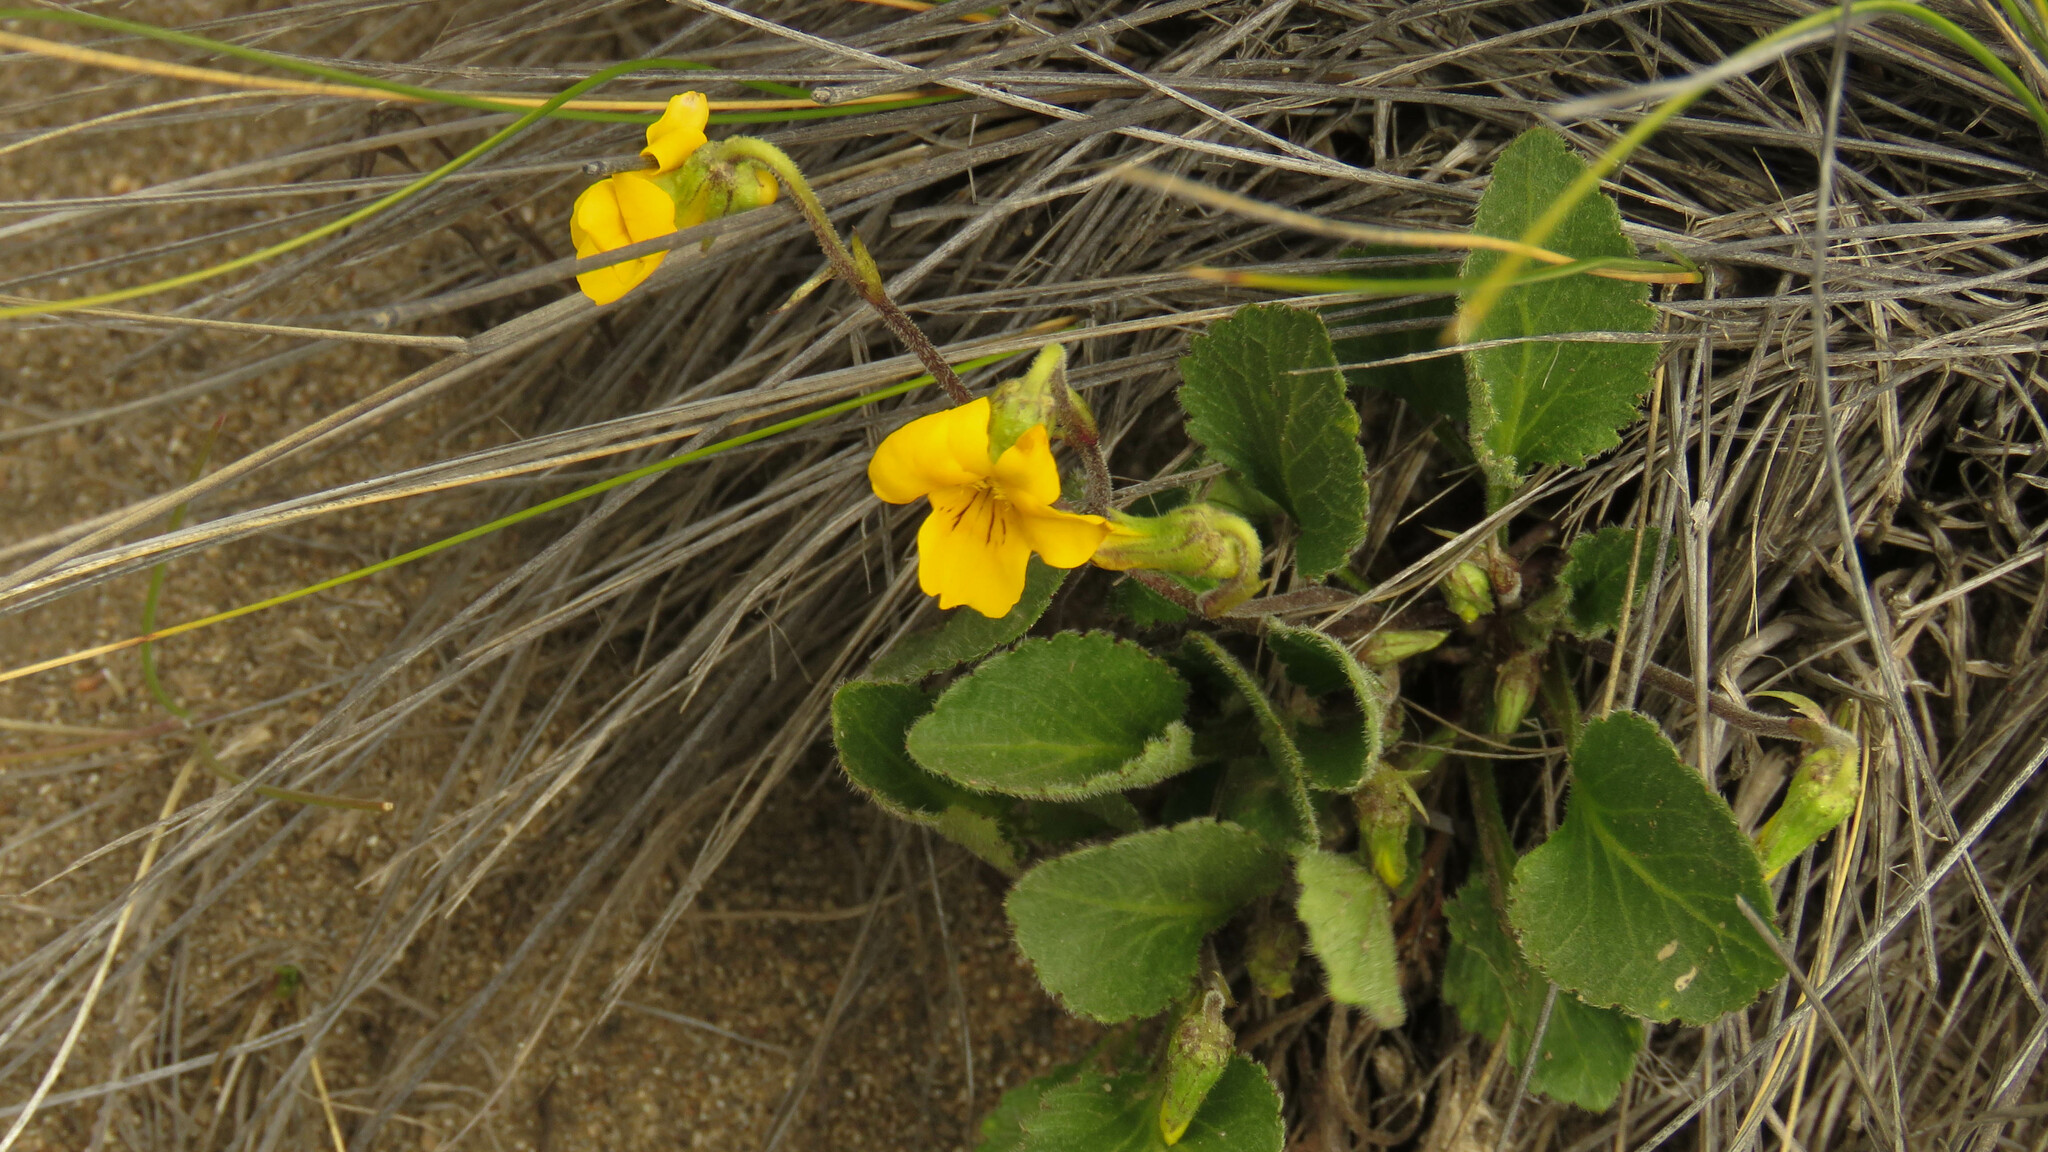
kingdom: Plantae
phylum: Tracheophyta
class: Magnoliopsida
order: Malpighiales
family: Violaceae
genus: Viola
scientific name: Viola maculata
